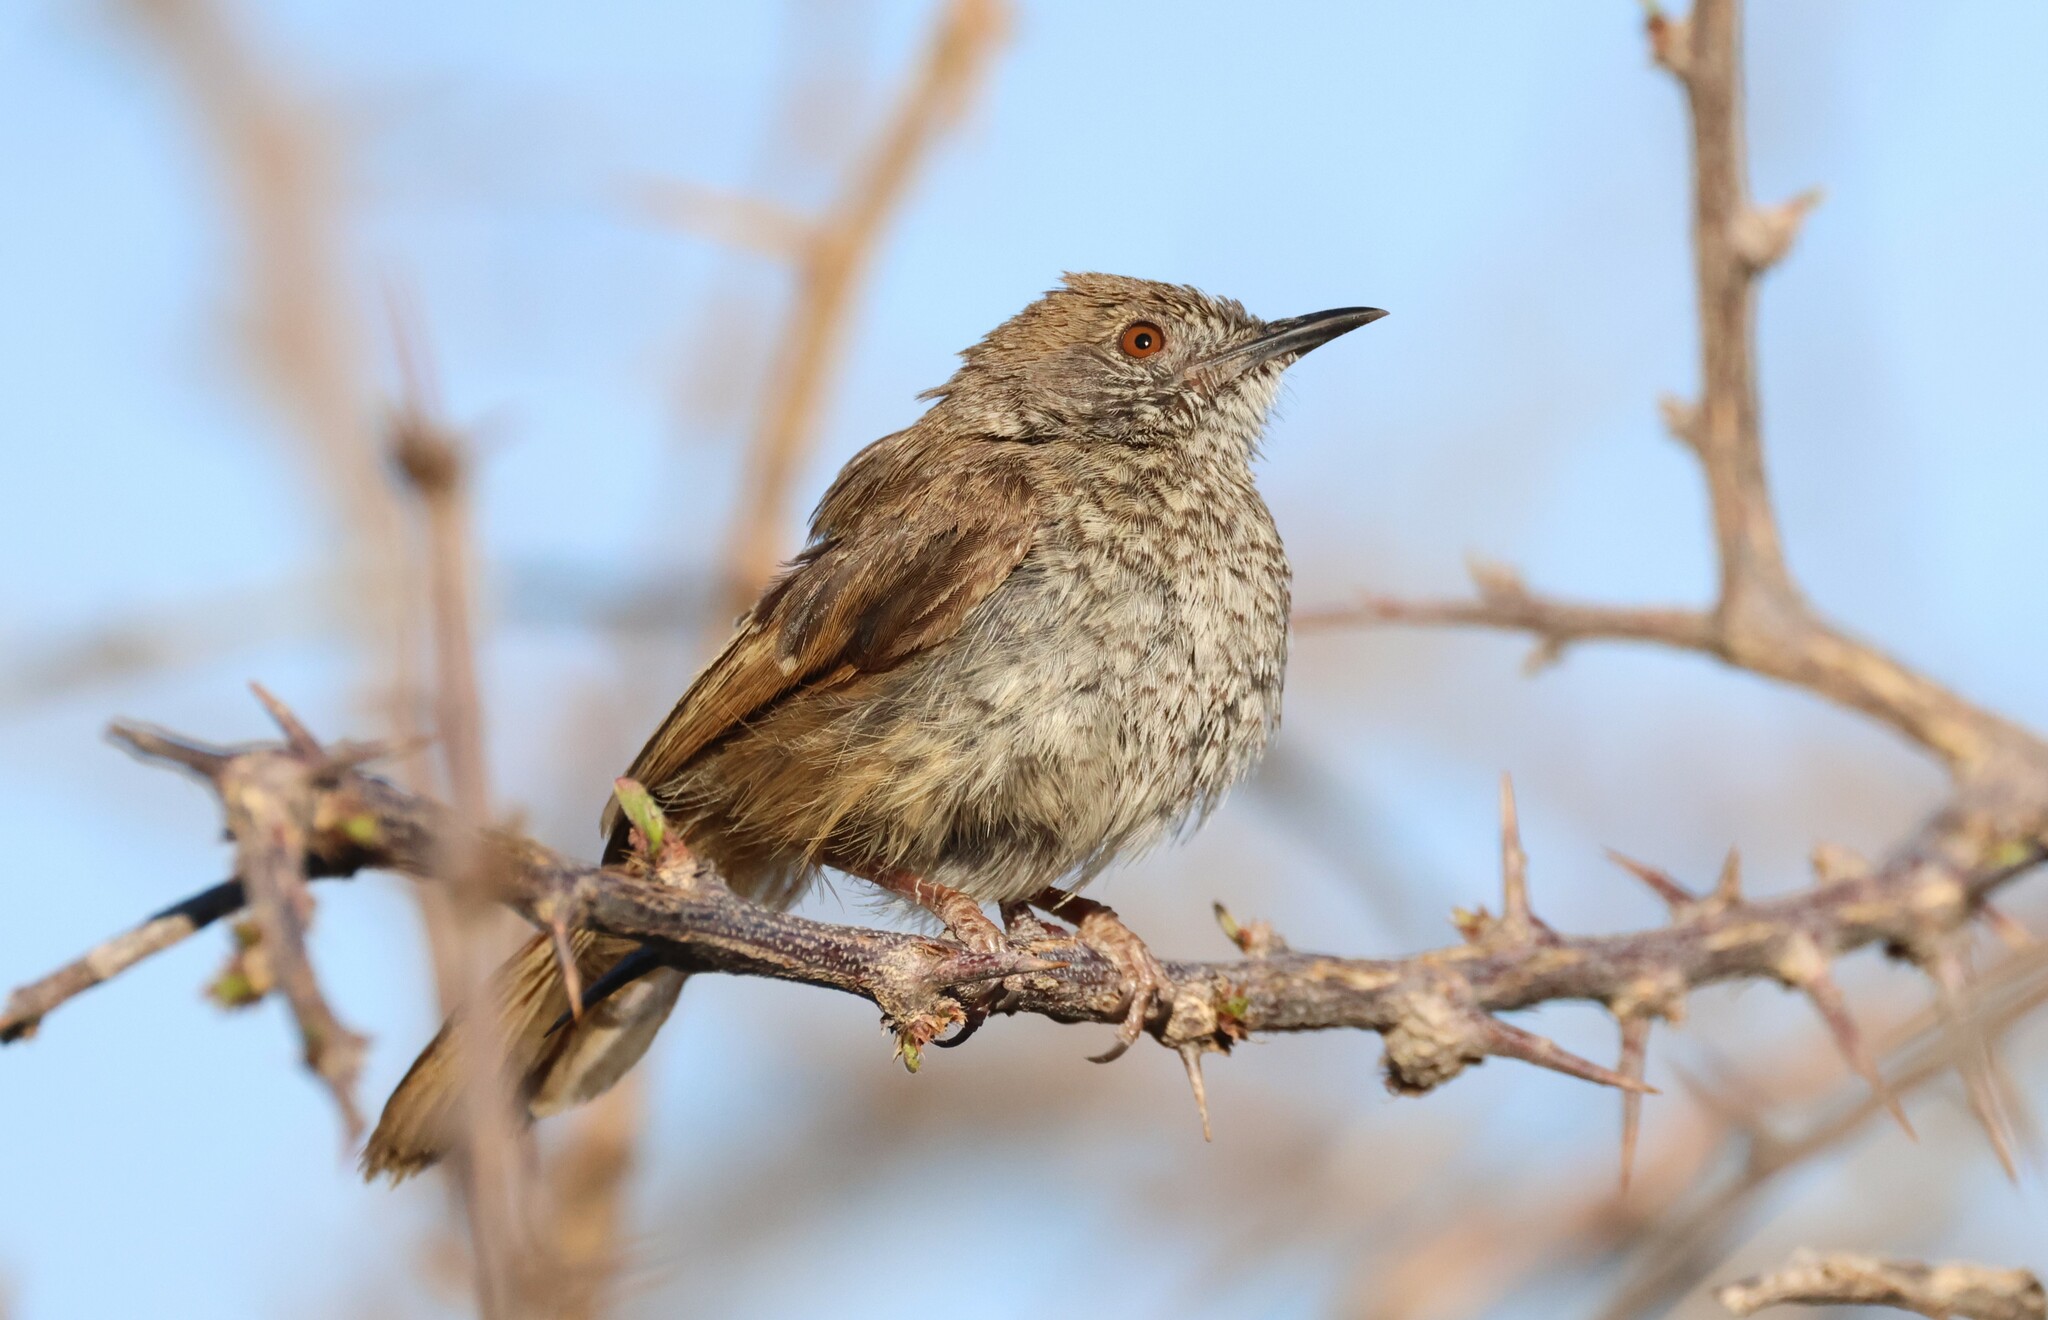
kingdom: Animalia
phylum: Chordata
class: Aves
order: Passeriformes
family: Cisticolidae
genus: Calamonastes
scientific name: Calamonastes fasciolatus
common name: Barred wren-warbler
